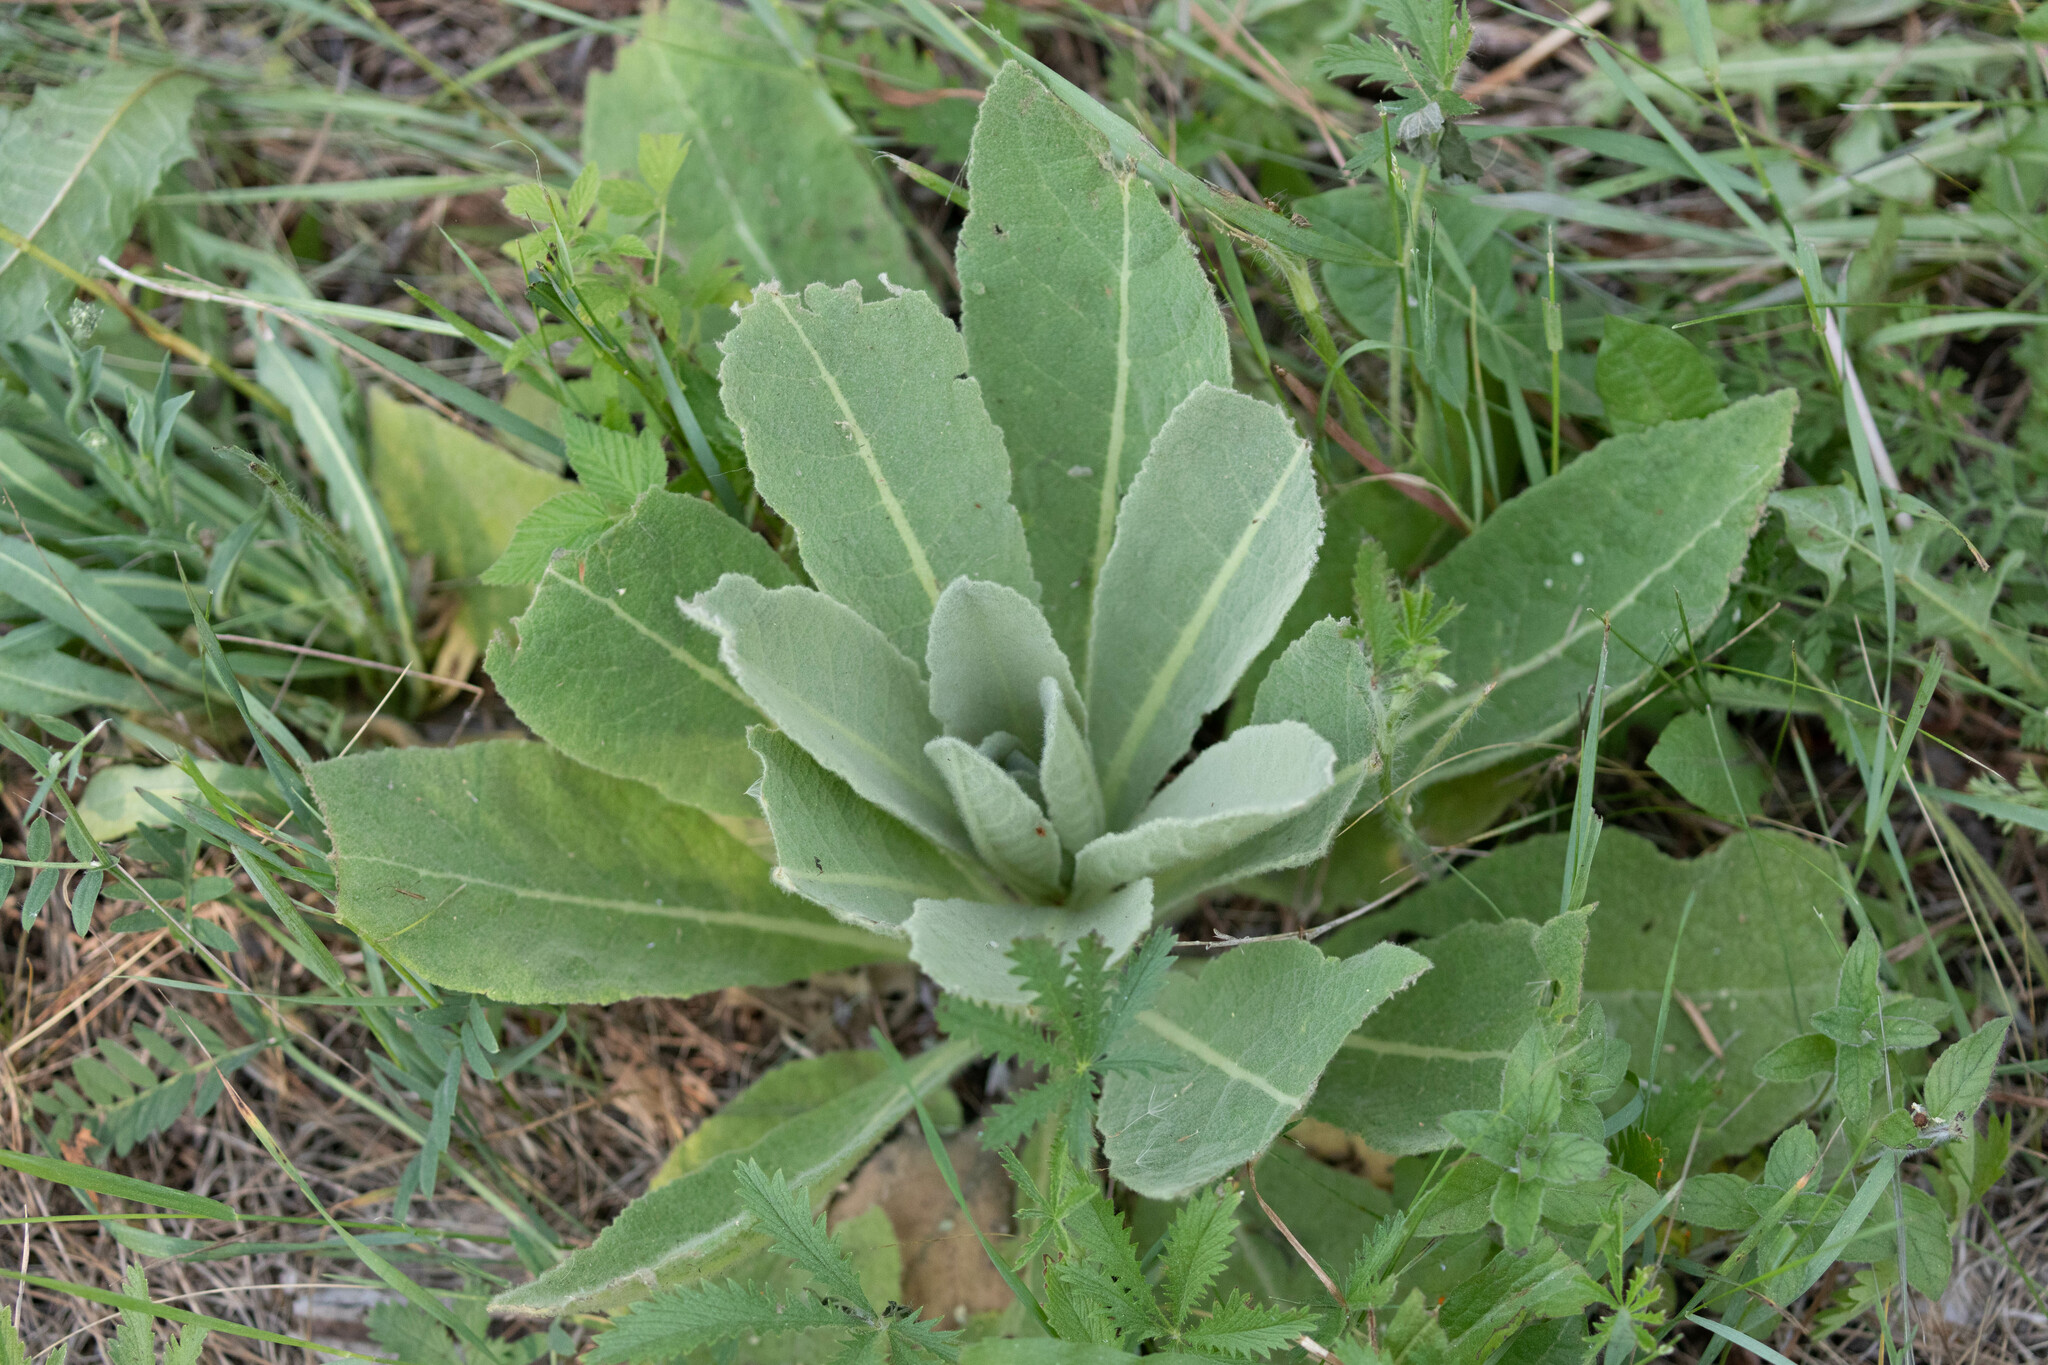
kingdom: Plantae
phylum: Tracheophyta
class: Magnoliopsida
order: Lamiales
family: Scrophulariaceae
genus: Verbascum
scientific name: Verbascum thapsus
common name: Common mullein
